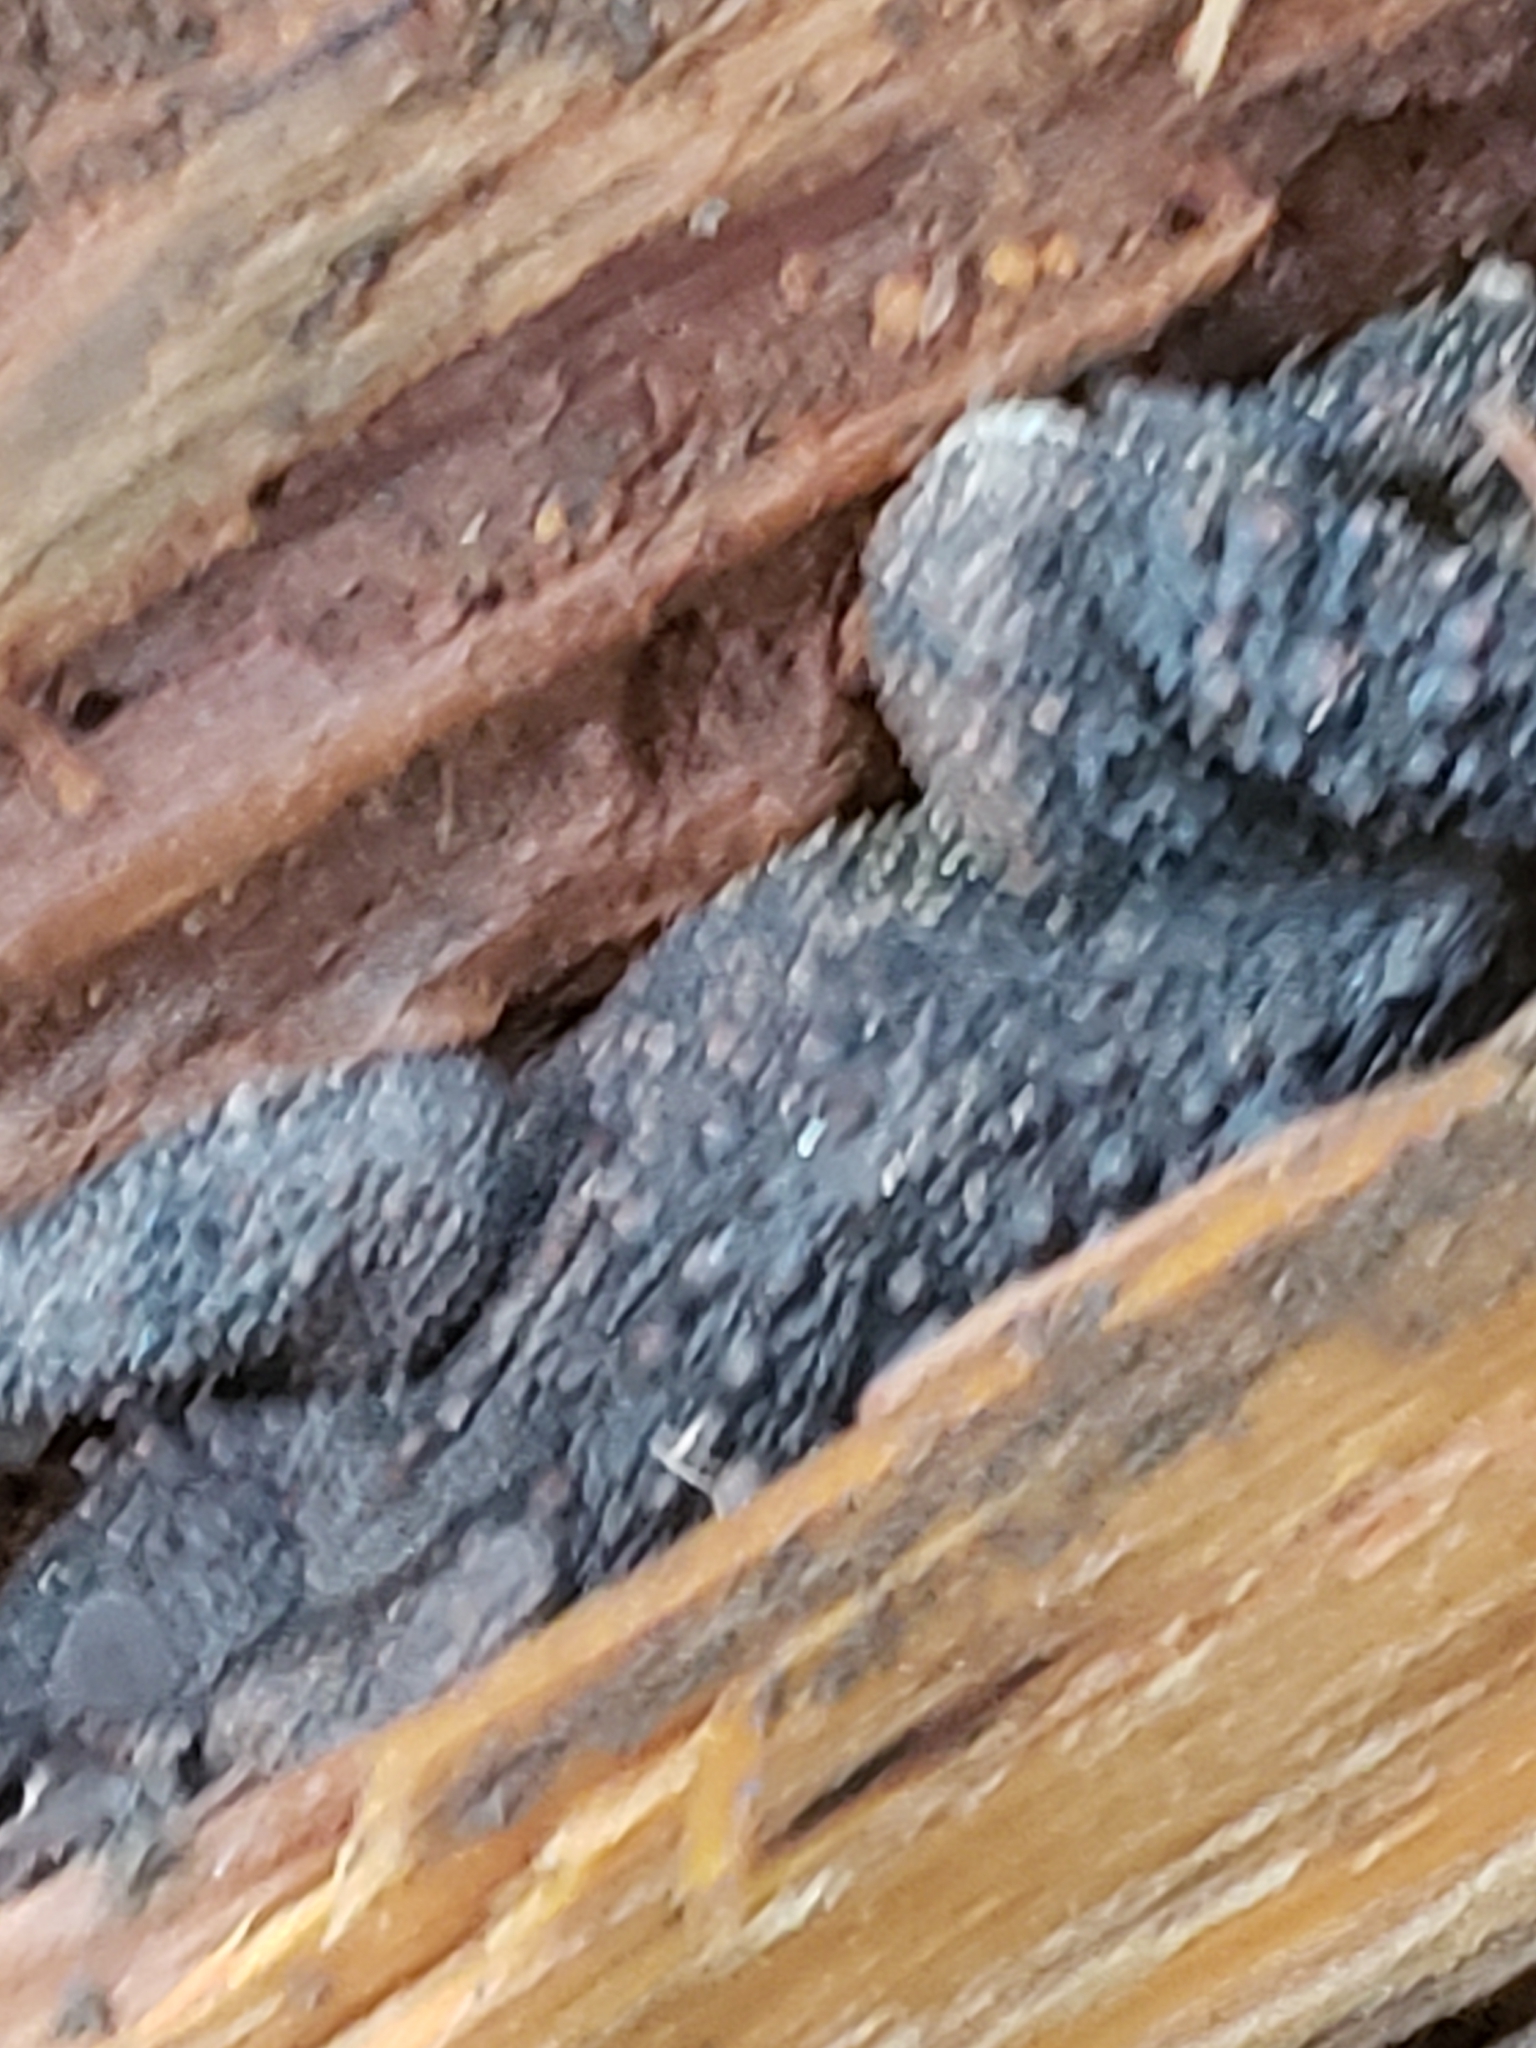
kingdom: Animalia
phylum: Chordata
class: Amphibia
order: Anura
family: Bufonidae
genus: Anaxyrus
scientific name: Anaxyrus americanus
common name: American toad
